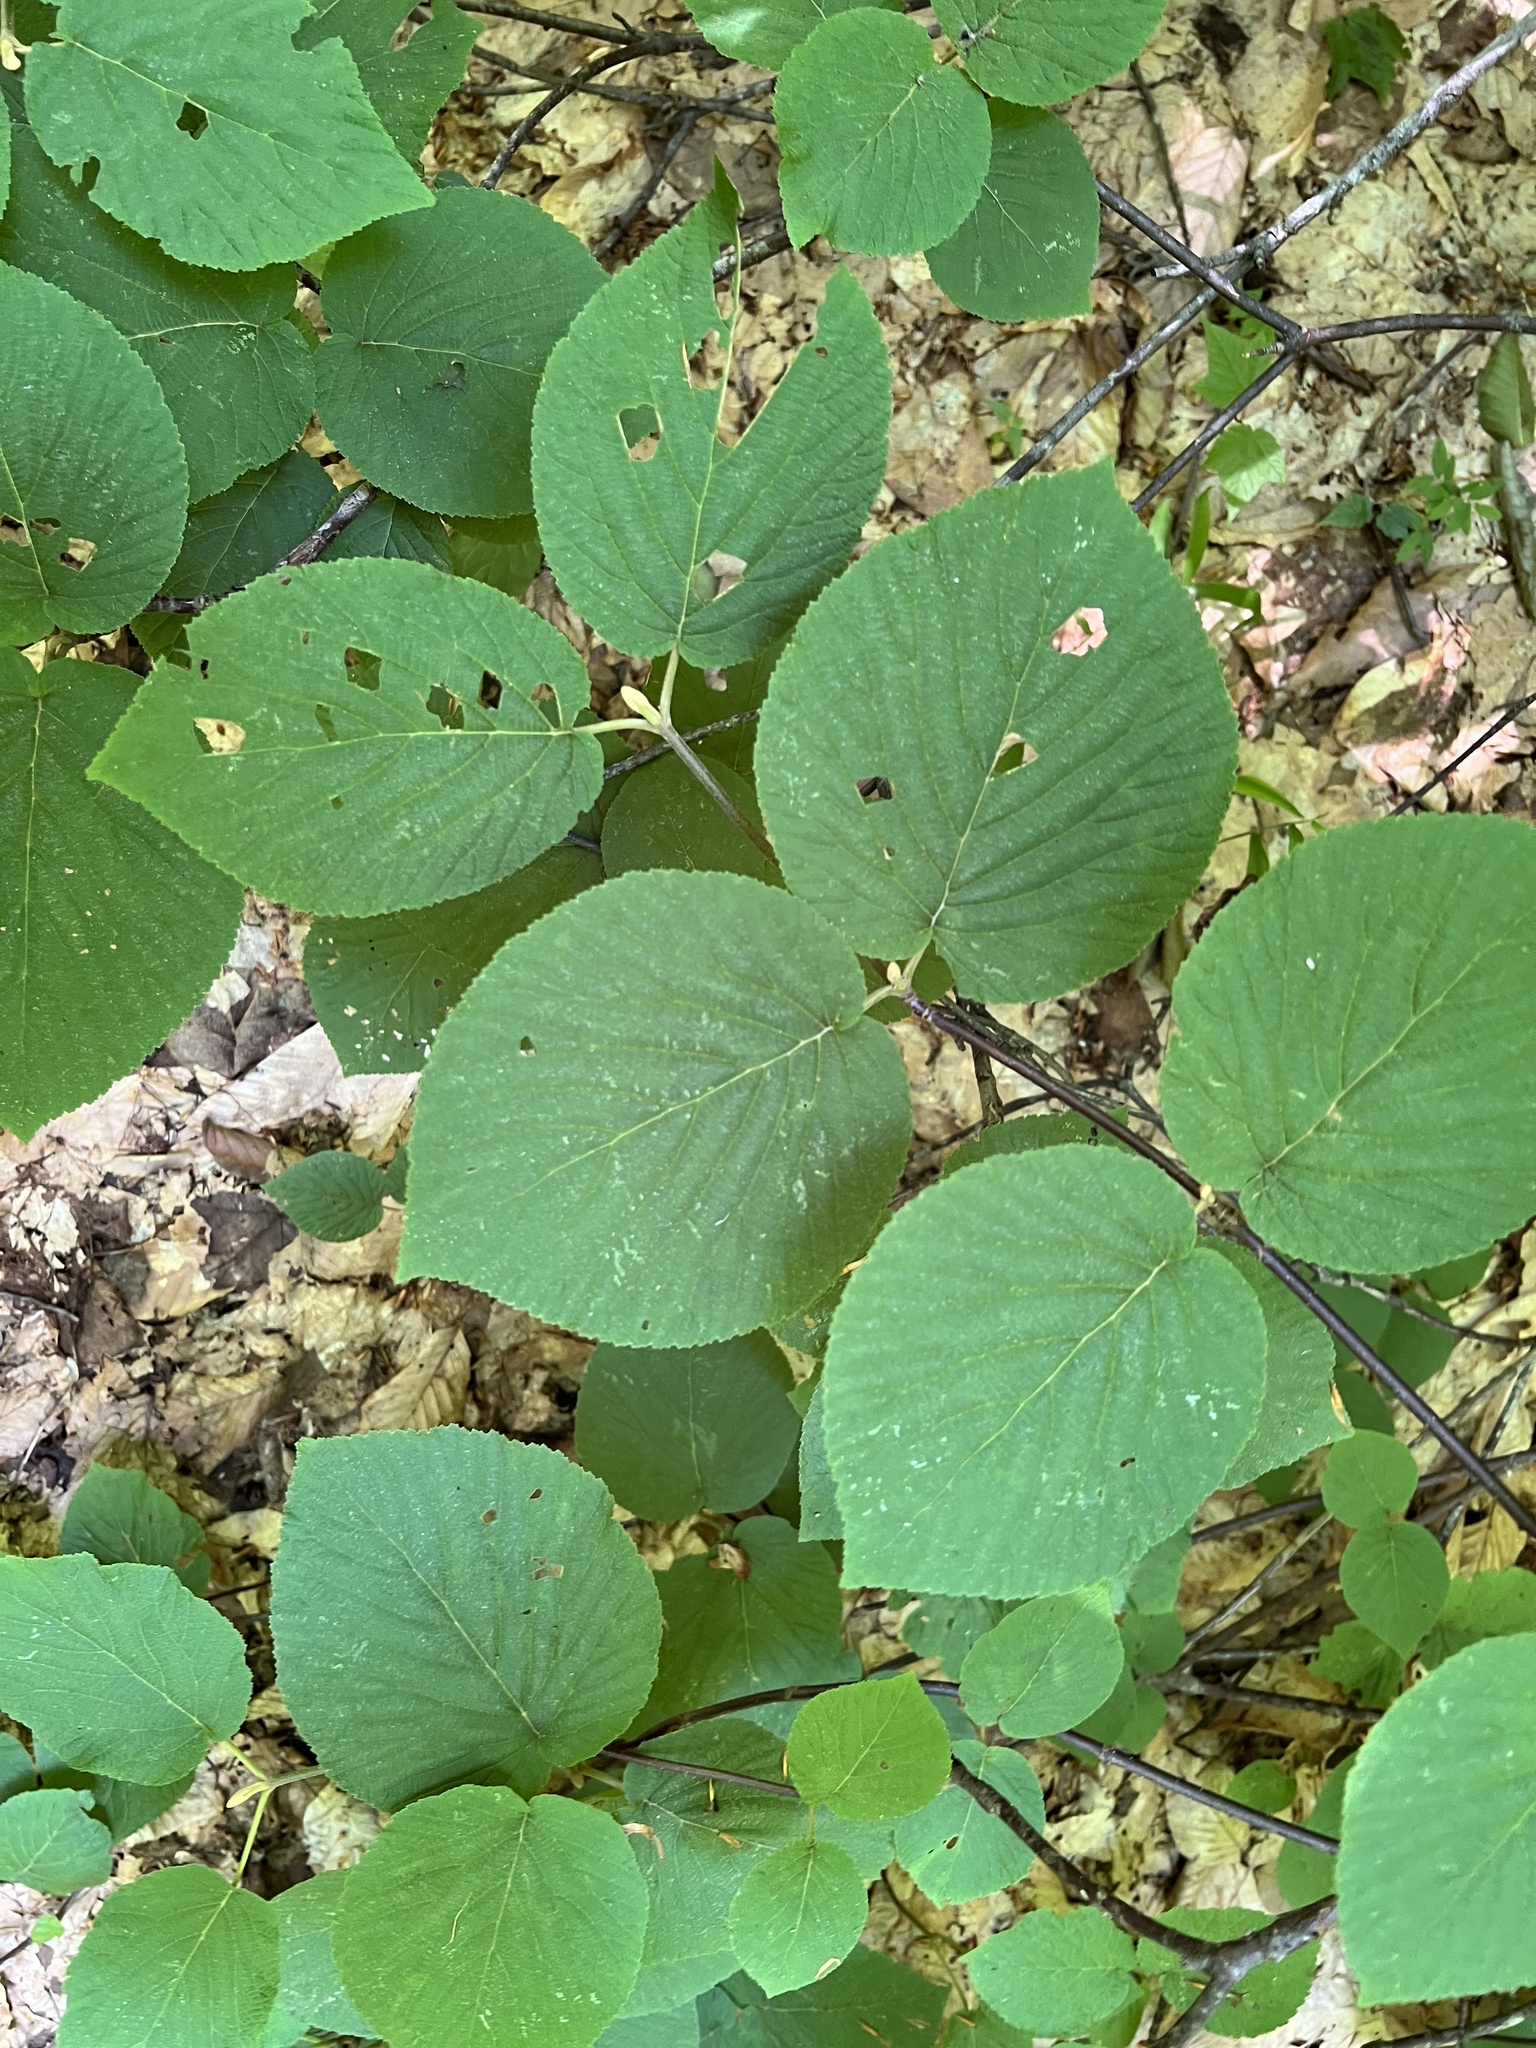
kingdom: Plantae
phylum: Tracheophyta
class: Magnoliopsida
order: Dipsacales
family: Viburnaceae
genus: Viburnum
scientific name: Viburnum lantanoides
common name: Hobblebush
